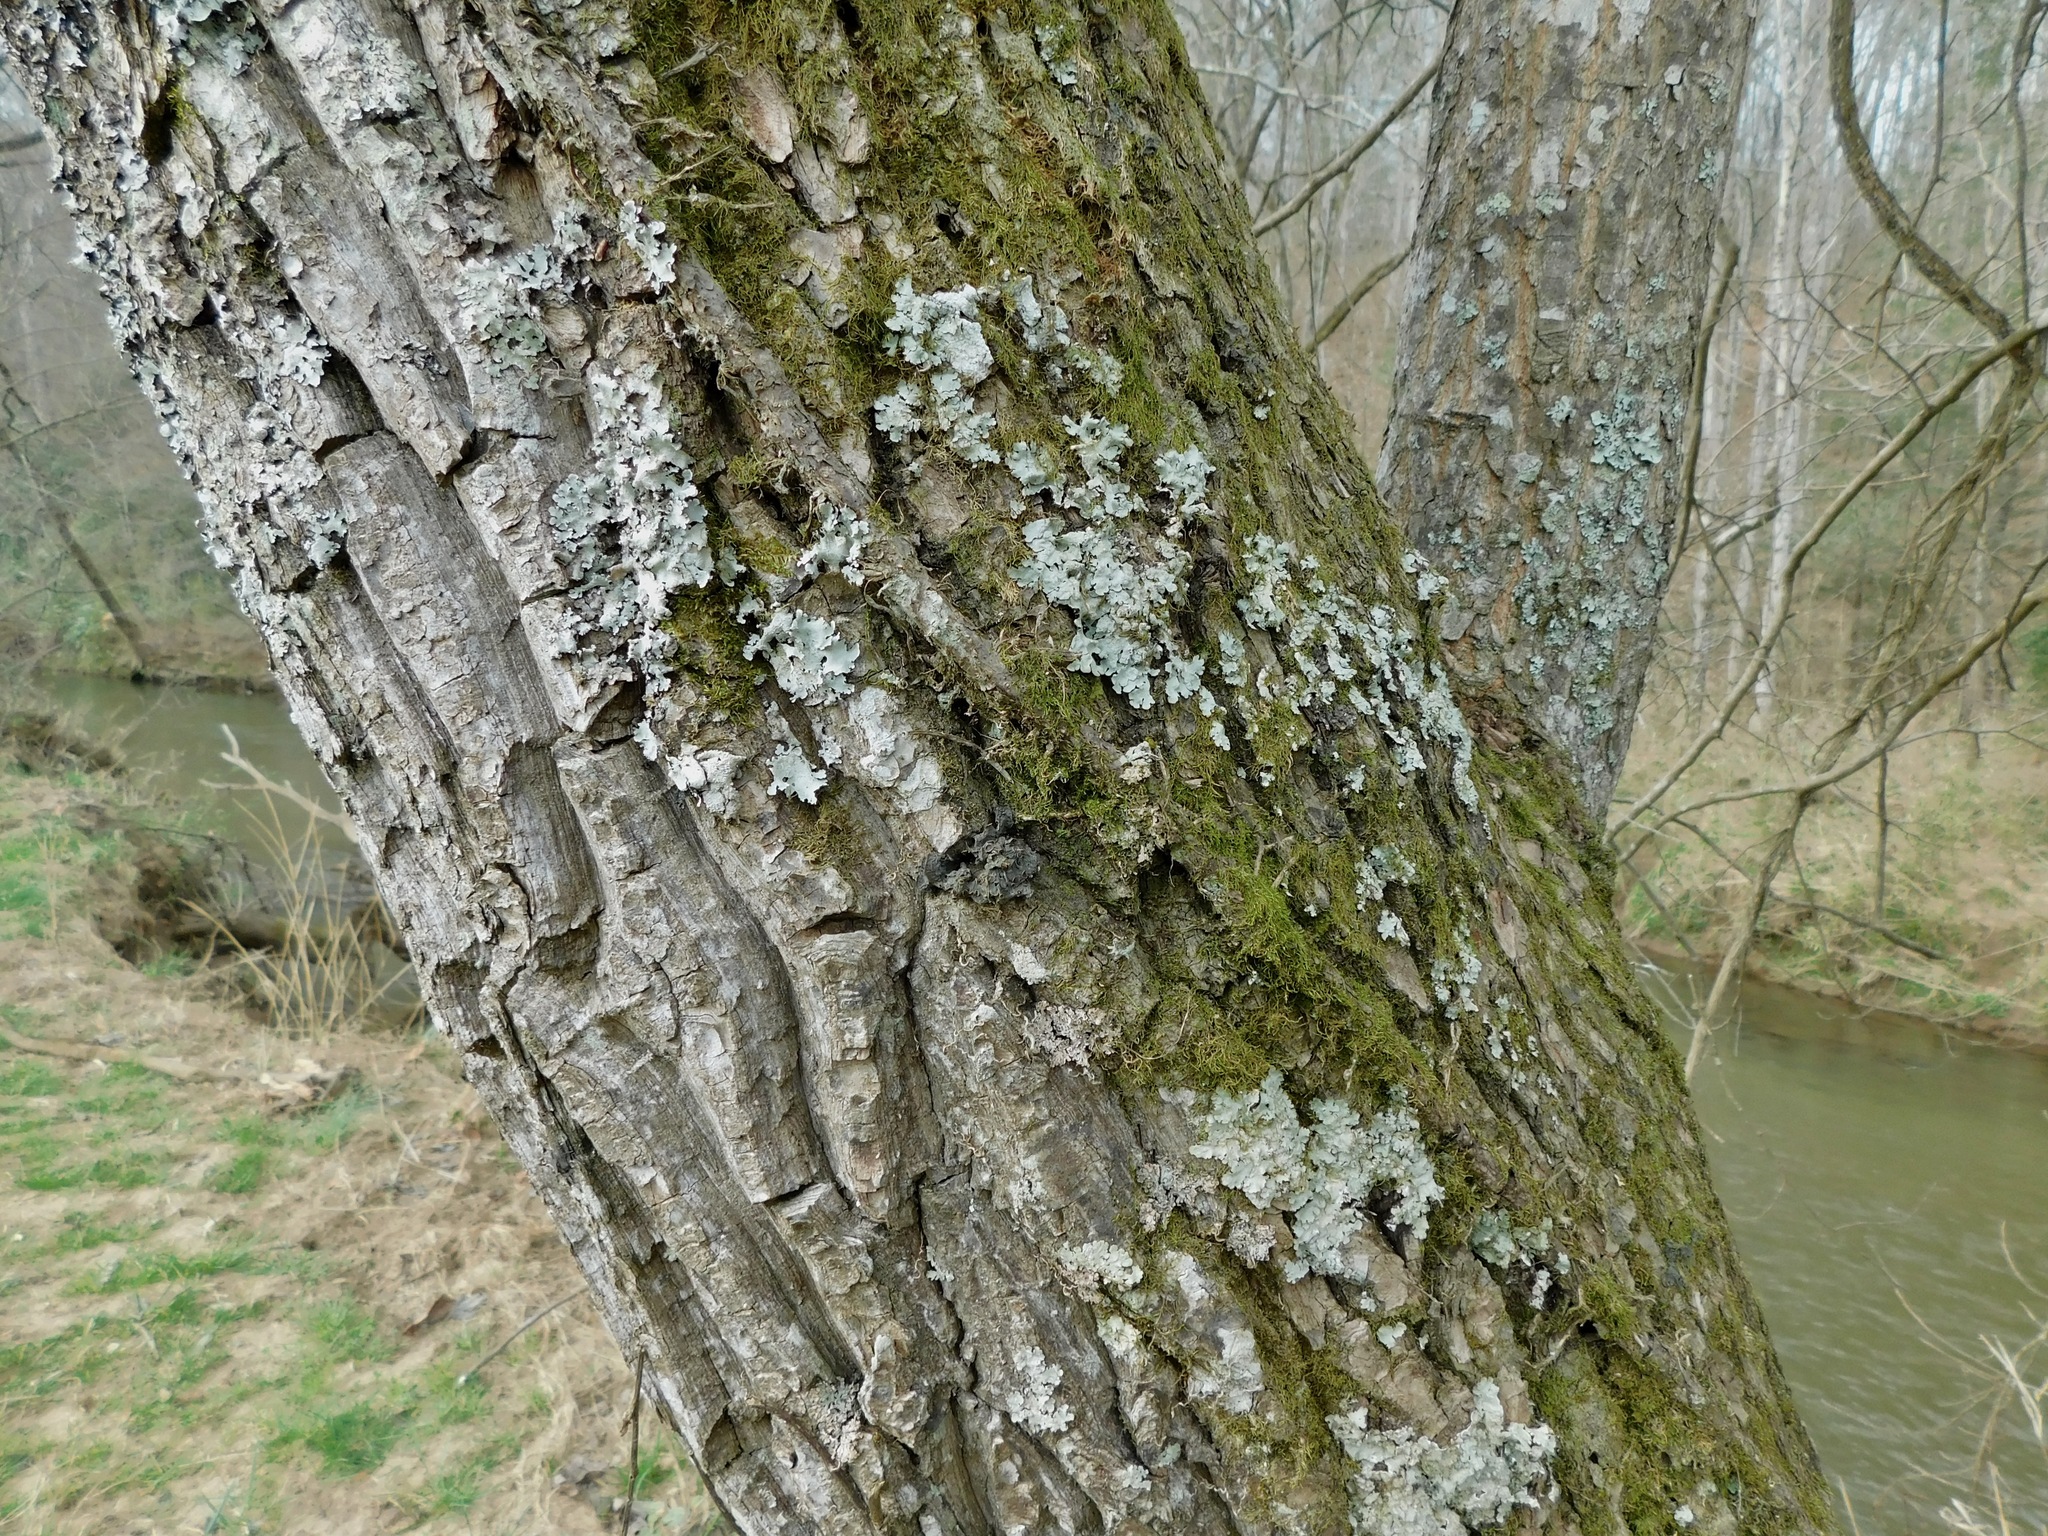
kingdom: Fungi
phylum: Ascomycota
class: Lecanoromycetes
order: Peltigerales
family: Collemataceae
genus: Leptogium
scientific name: Leptogium corticola
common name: Blistered jellyskin lichen
